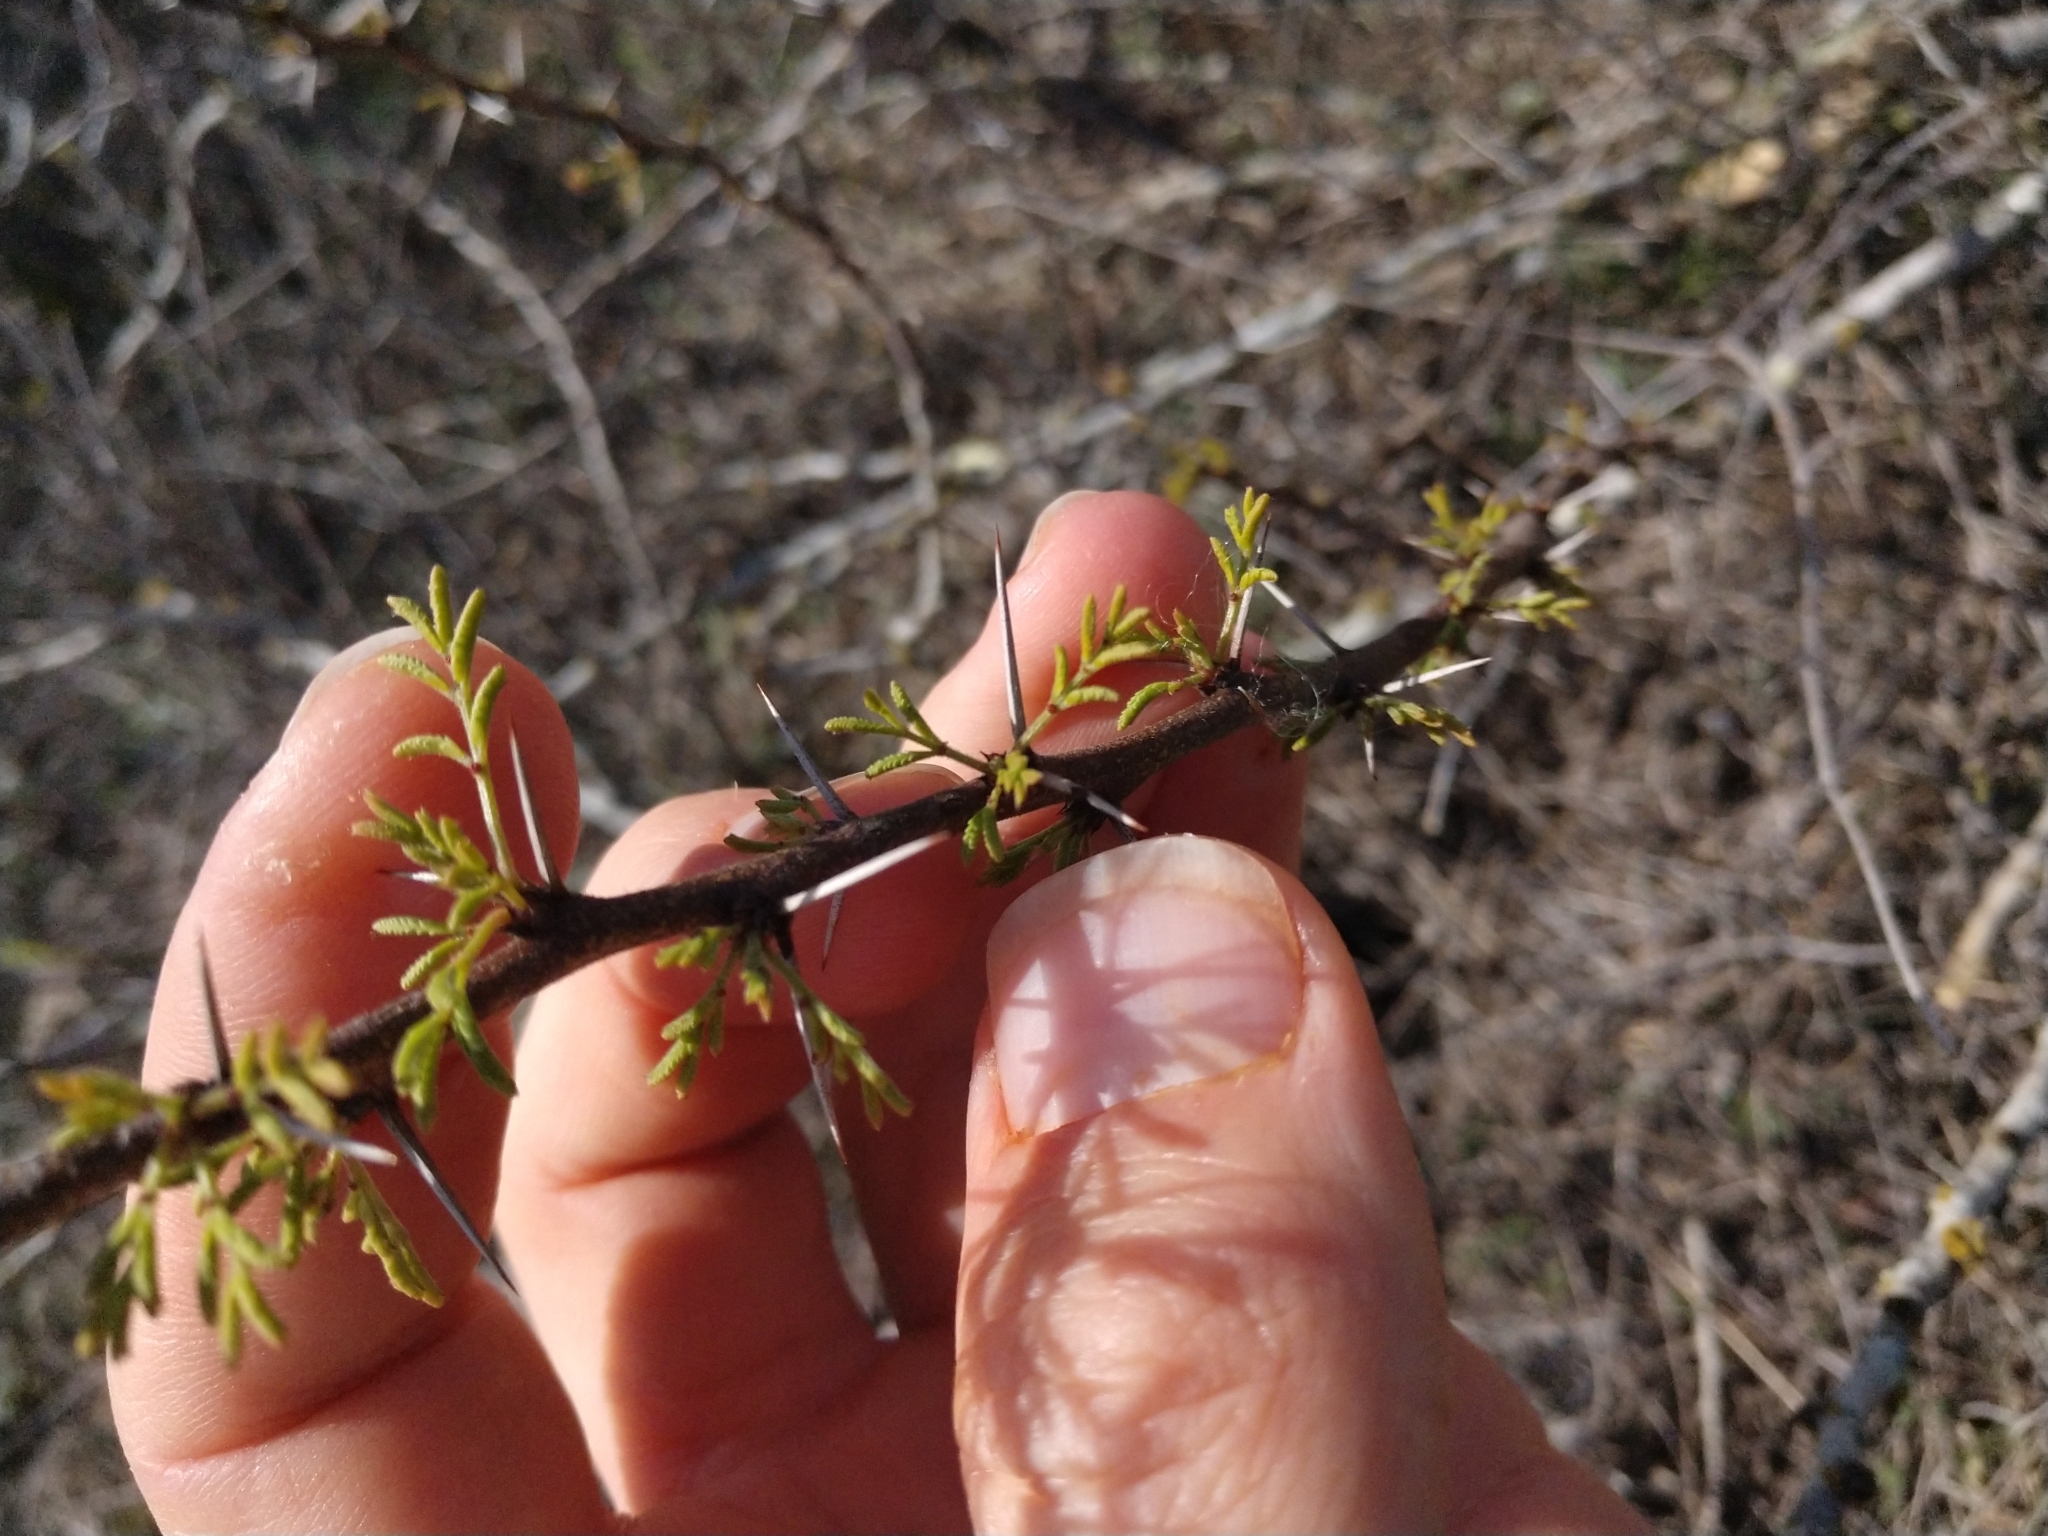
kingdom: Plantae
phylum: Tracheophyta
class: Magnoliopsida
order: Fabales
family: Fabaceae
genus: Vachellia
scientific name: Vachellia schaffneri
